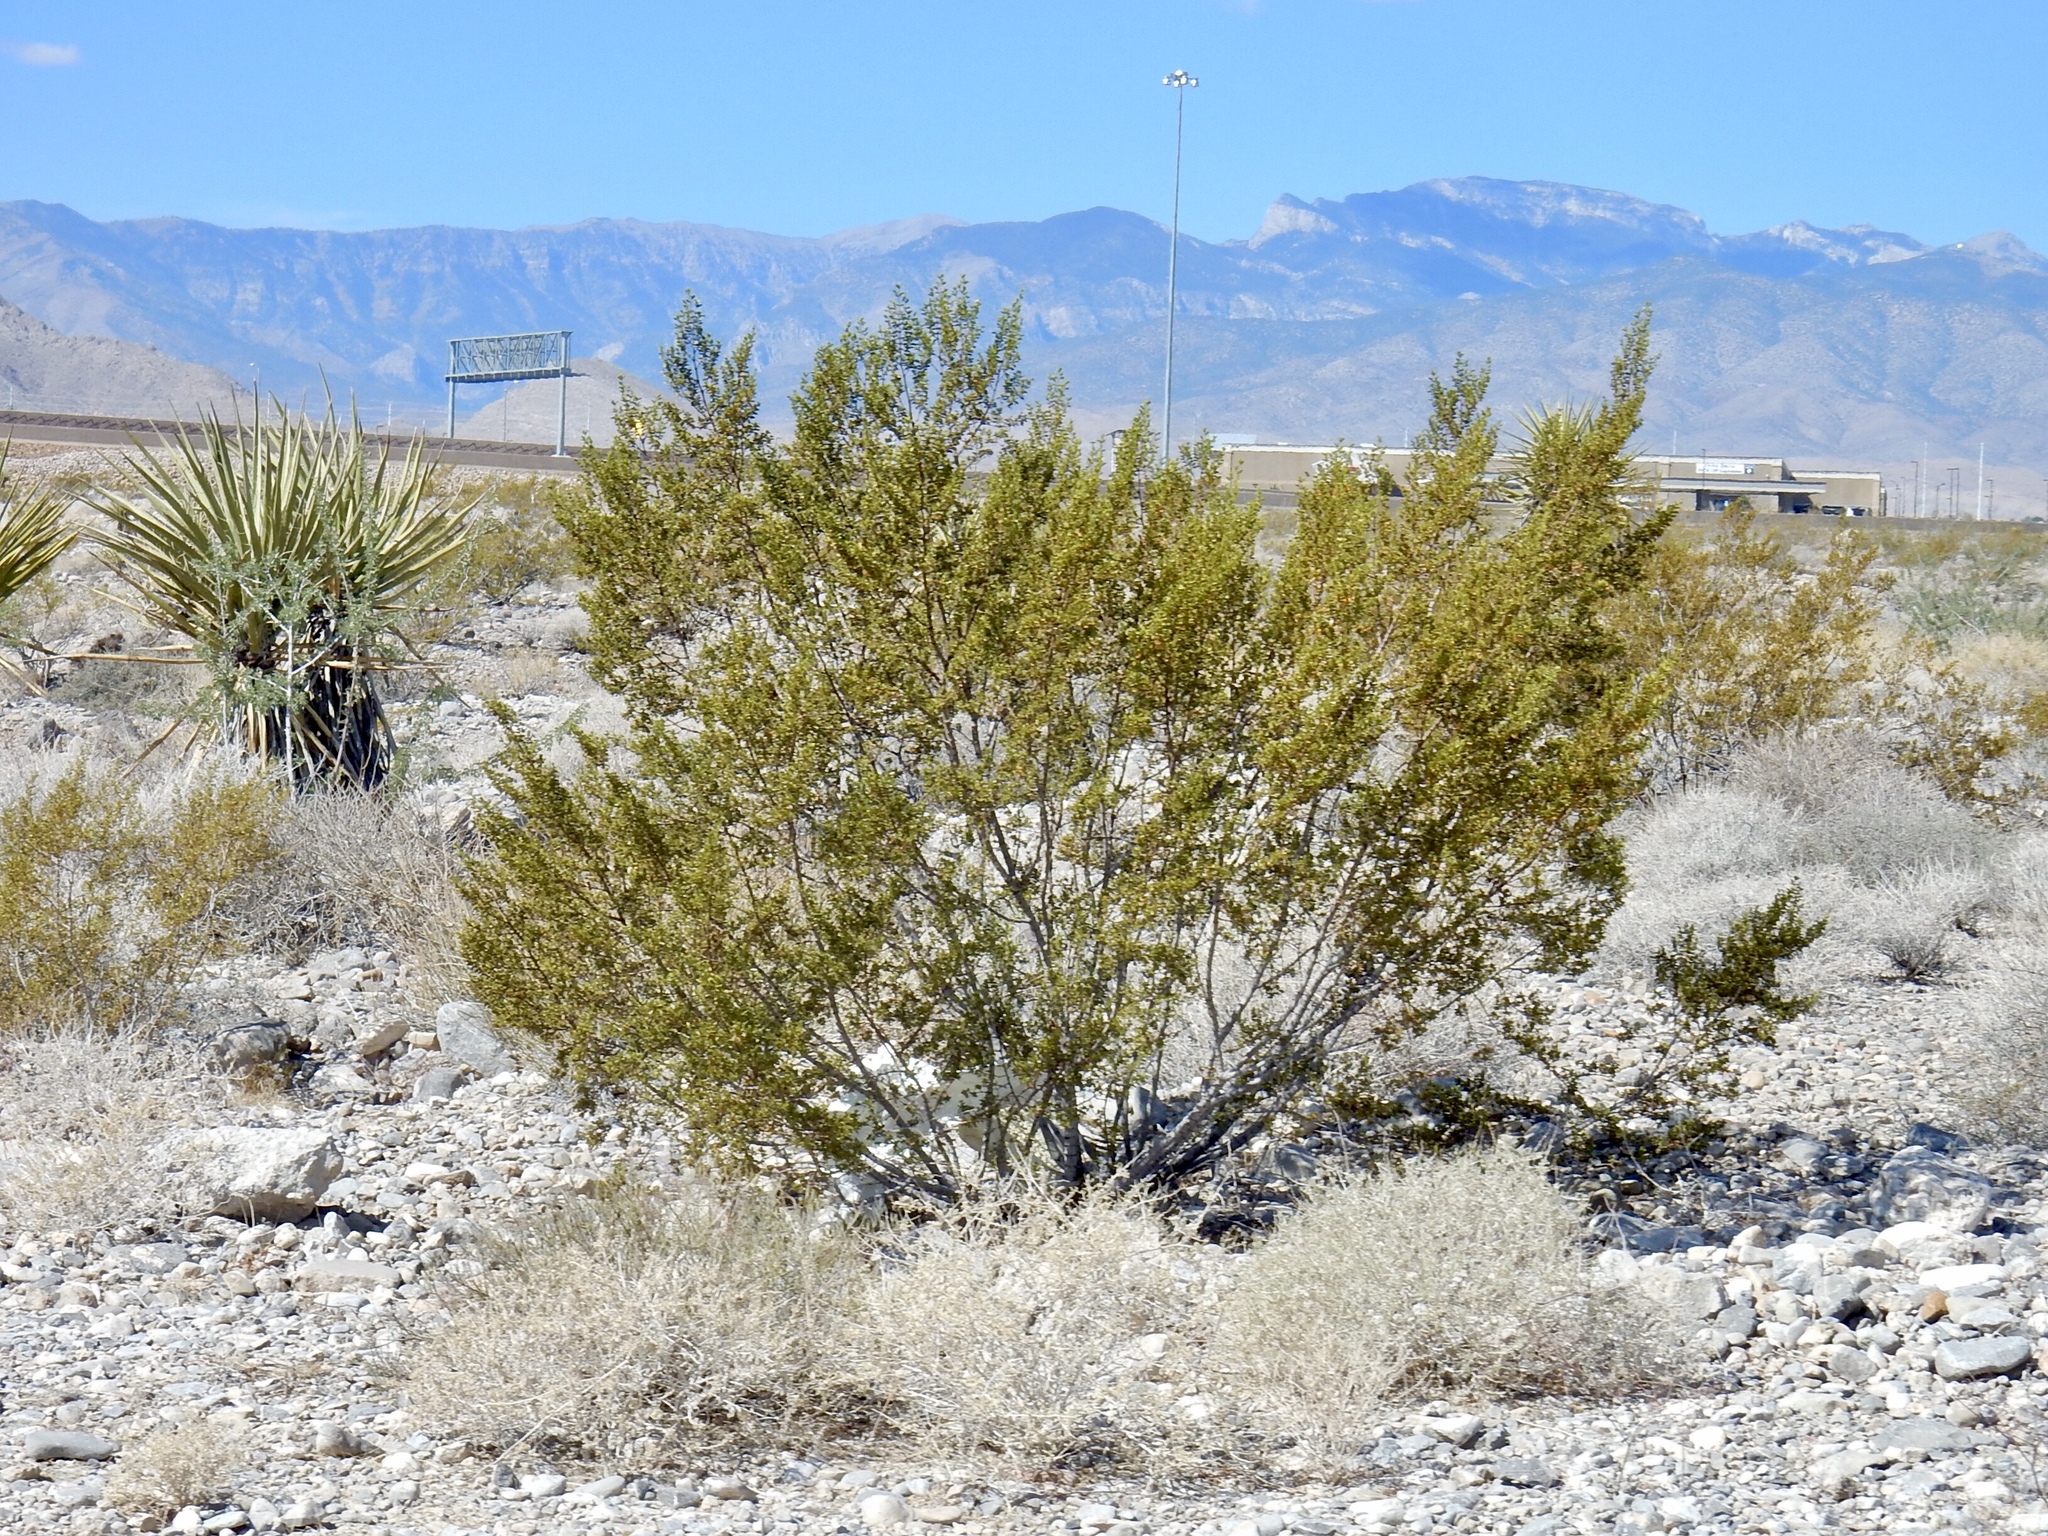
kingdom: Plantae
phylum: Tracheophyta
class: Magnoliopsida
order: Zygophyllales
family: Zygophyllaceae
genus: Larrea
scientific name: Larrea tridentata
